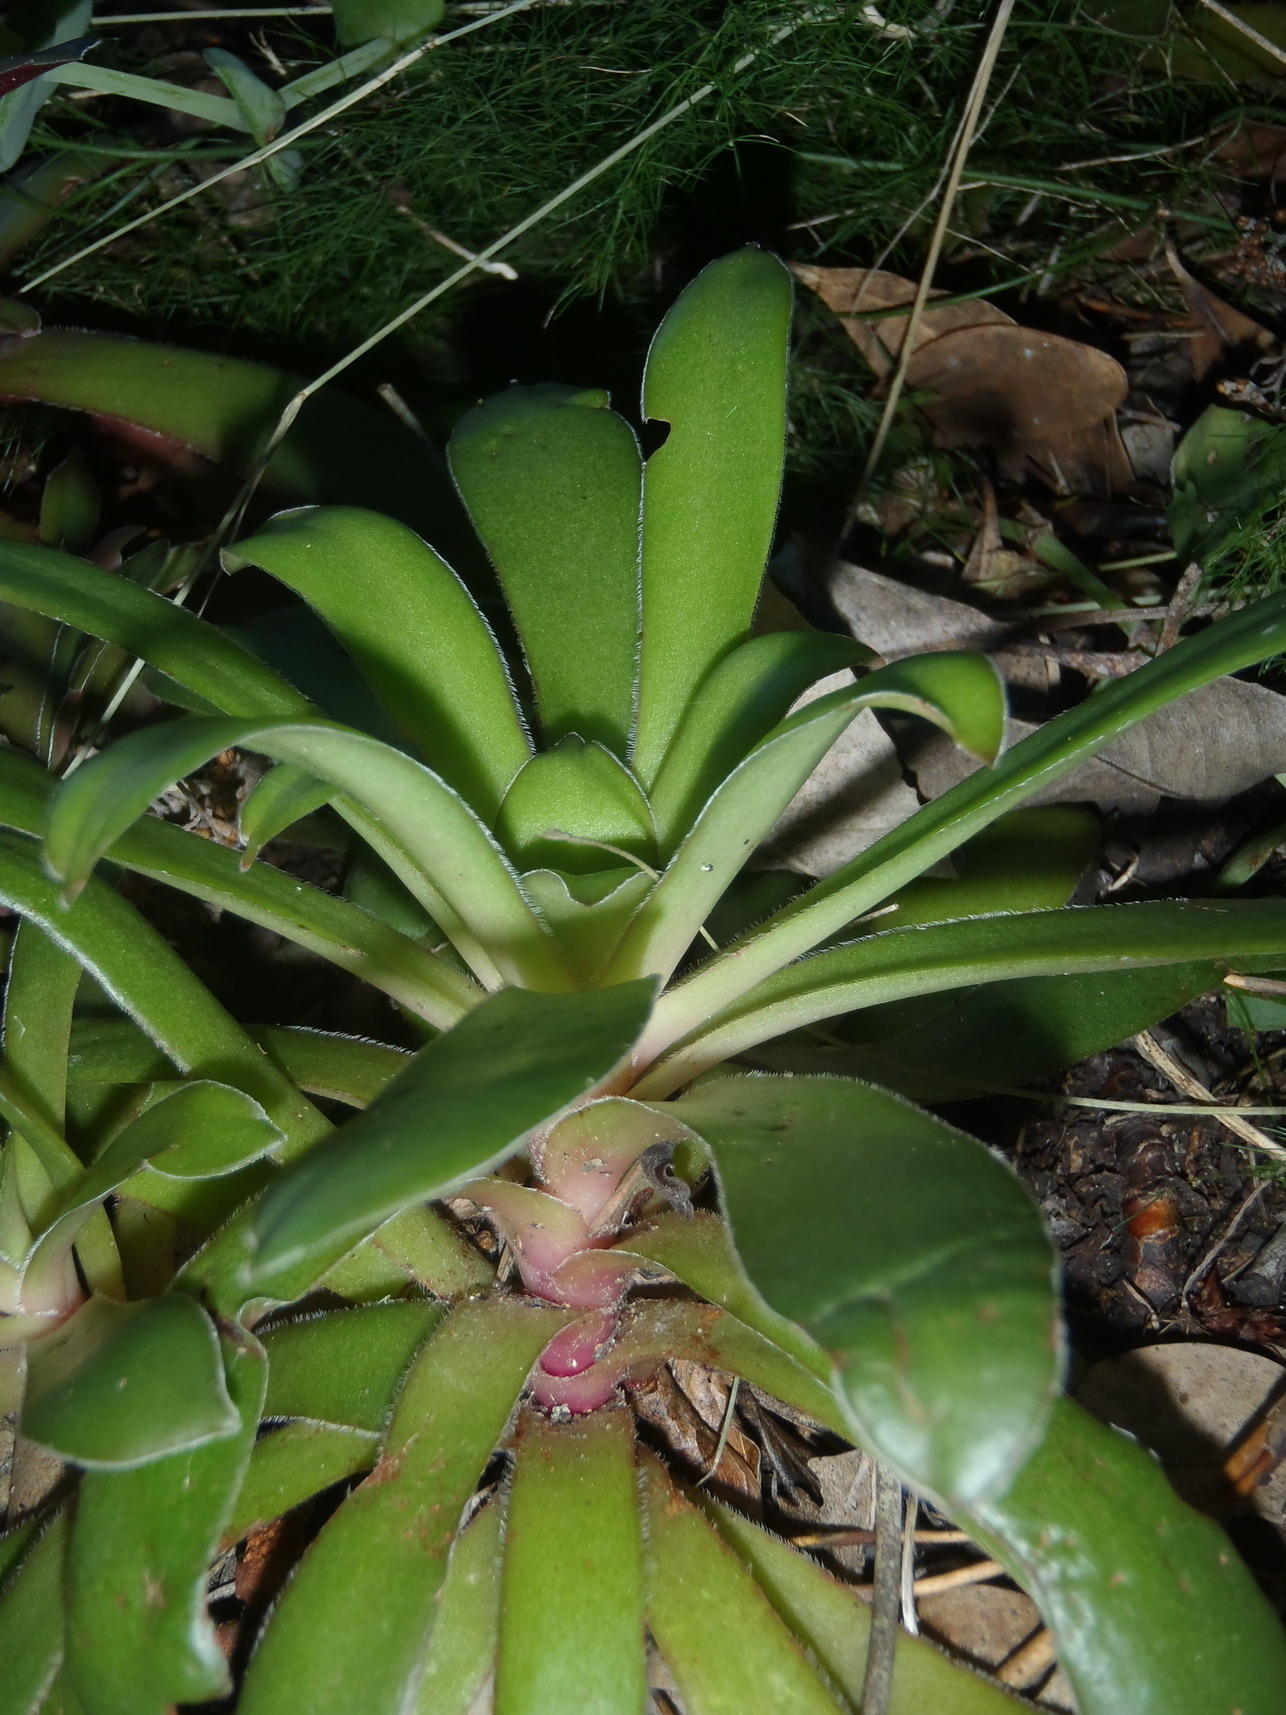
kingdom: Plantae
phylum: Tracheophyta
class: Magnoliopsida
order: Saxifragales
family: Crassulaceae
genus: Crassula
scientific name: Crassula orbicularis
